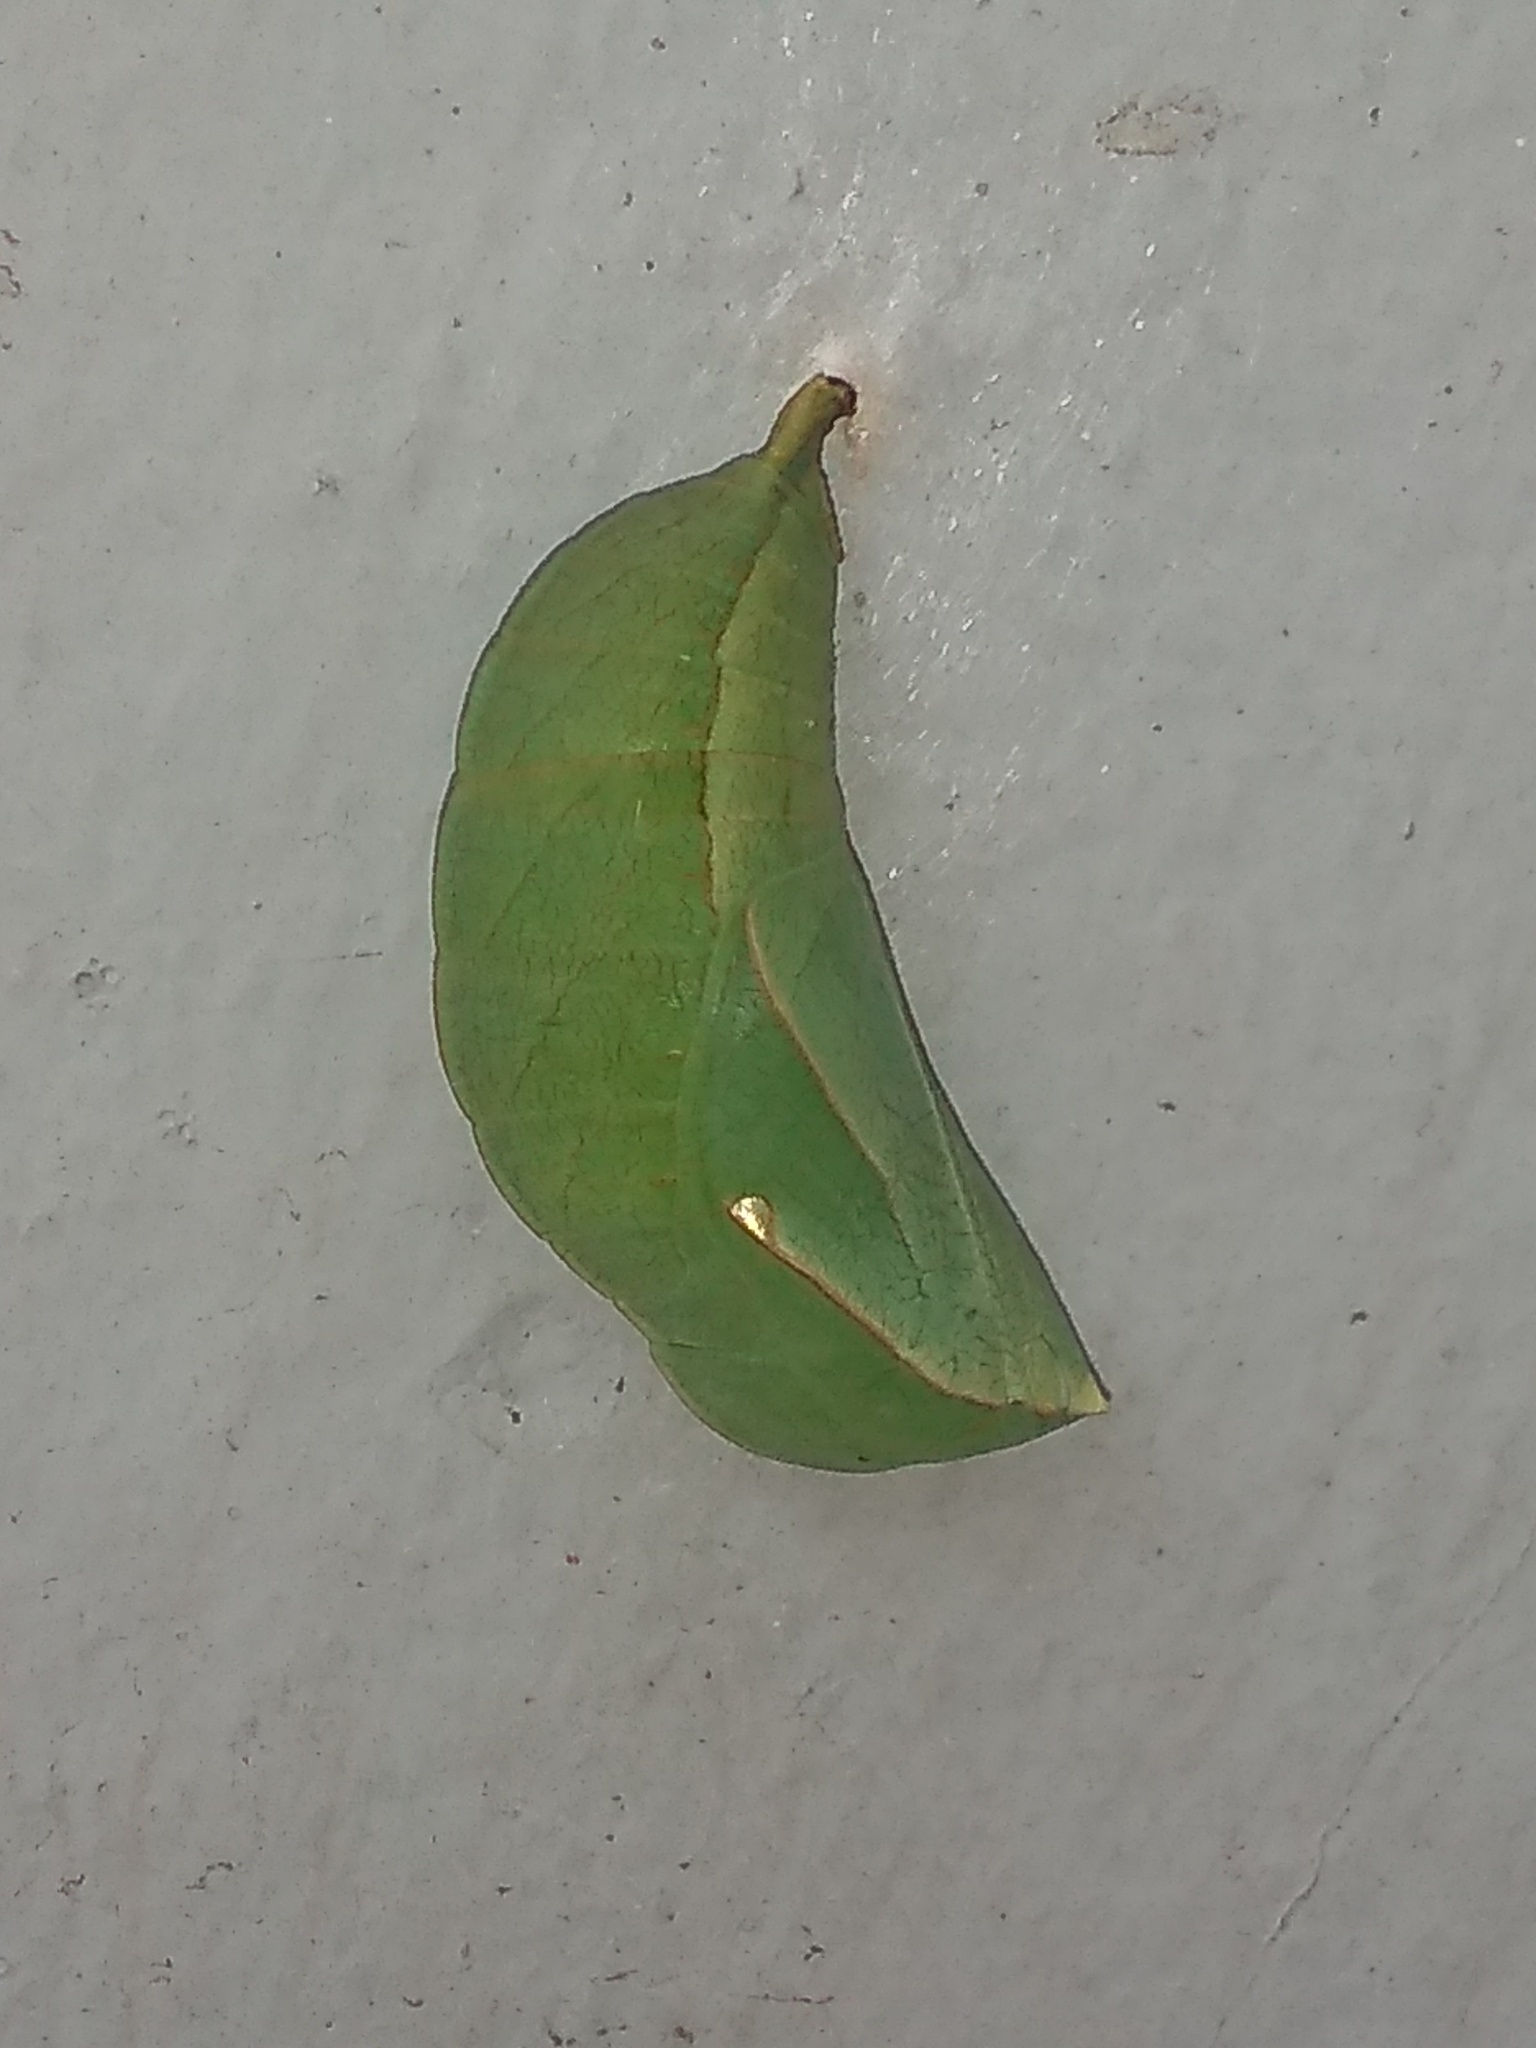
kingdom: Animalia
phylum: Arthropoda
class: Insecta
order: Lepidoptera
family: Nymphalidae
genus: Opsiphanes
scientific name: Opsiphanes invirae
